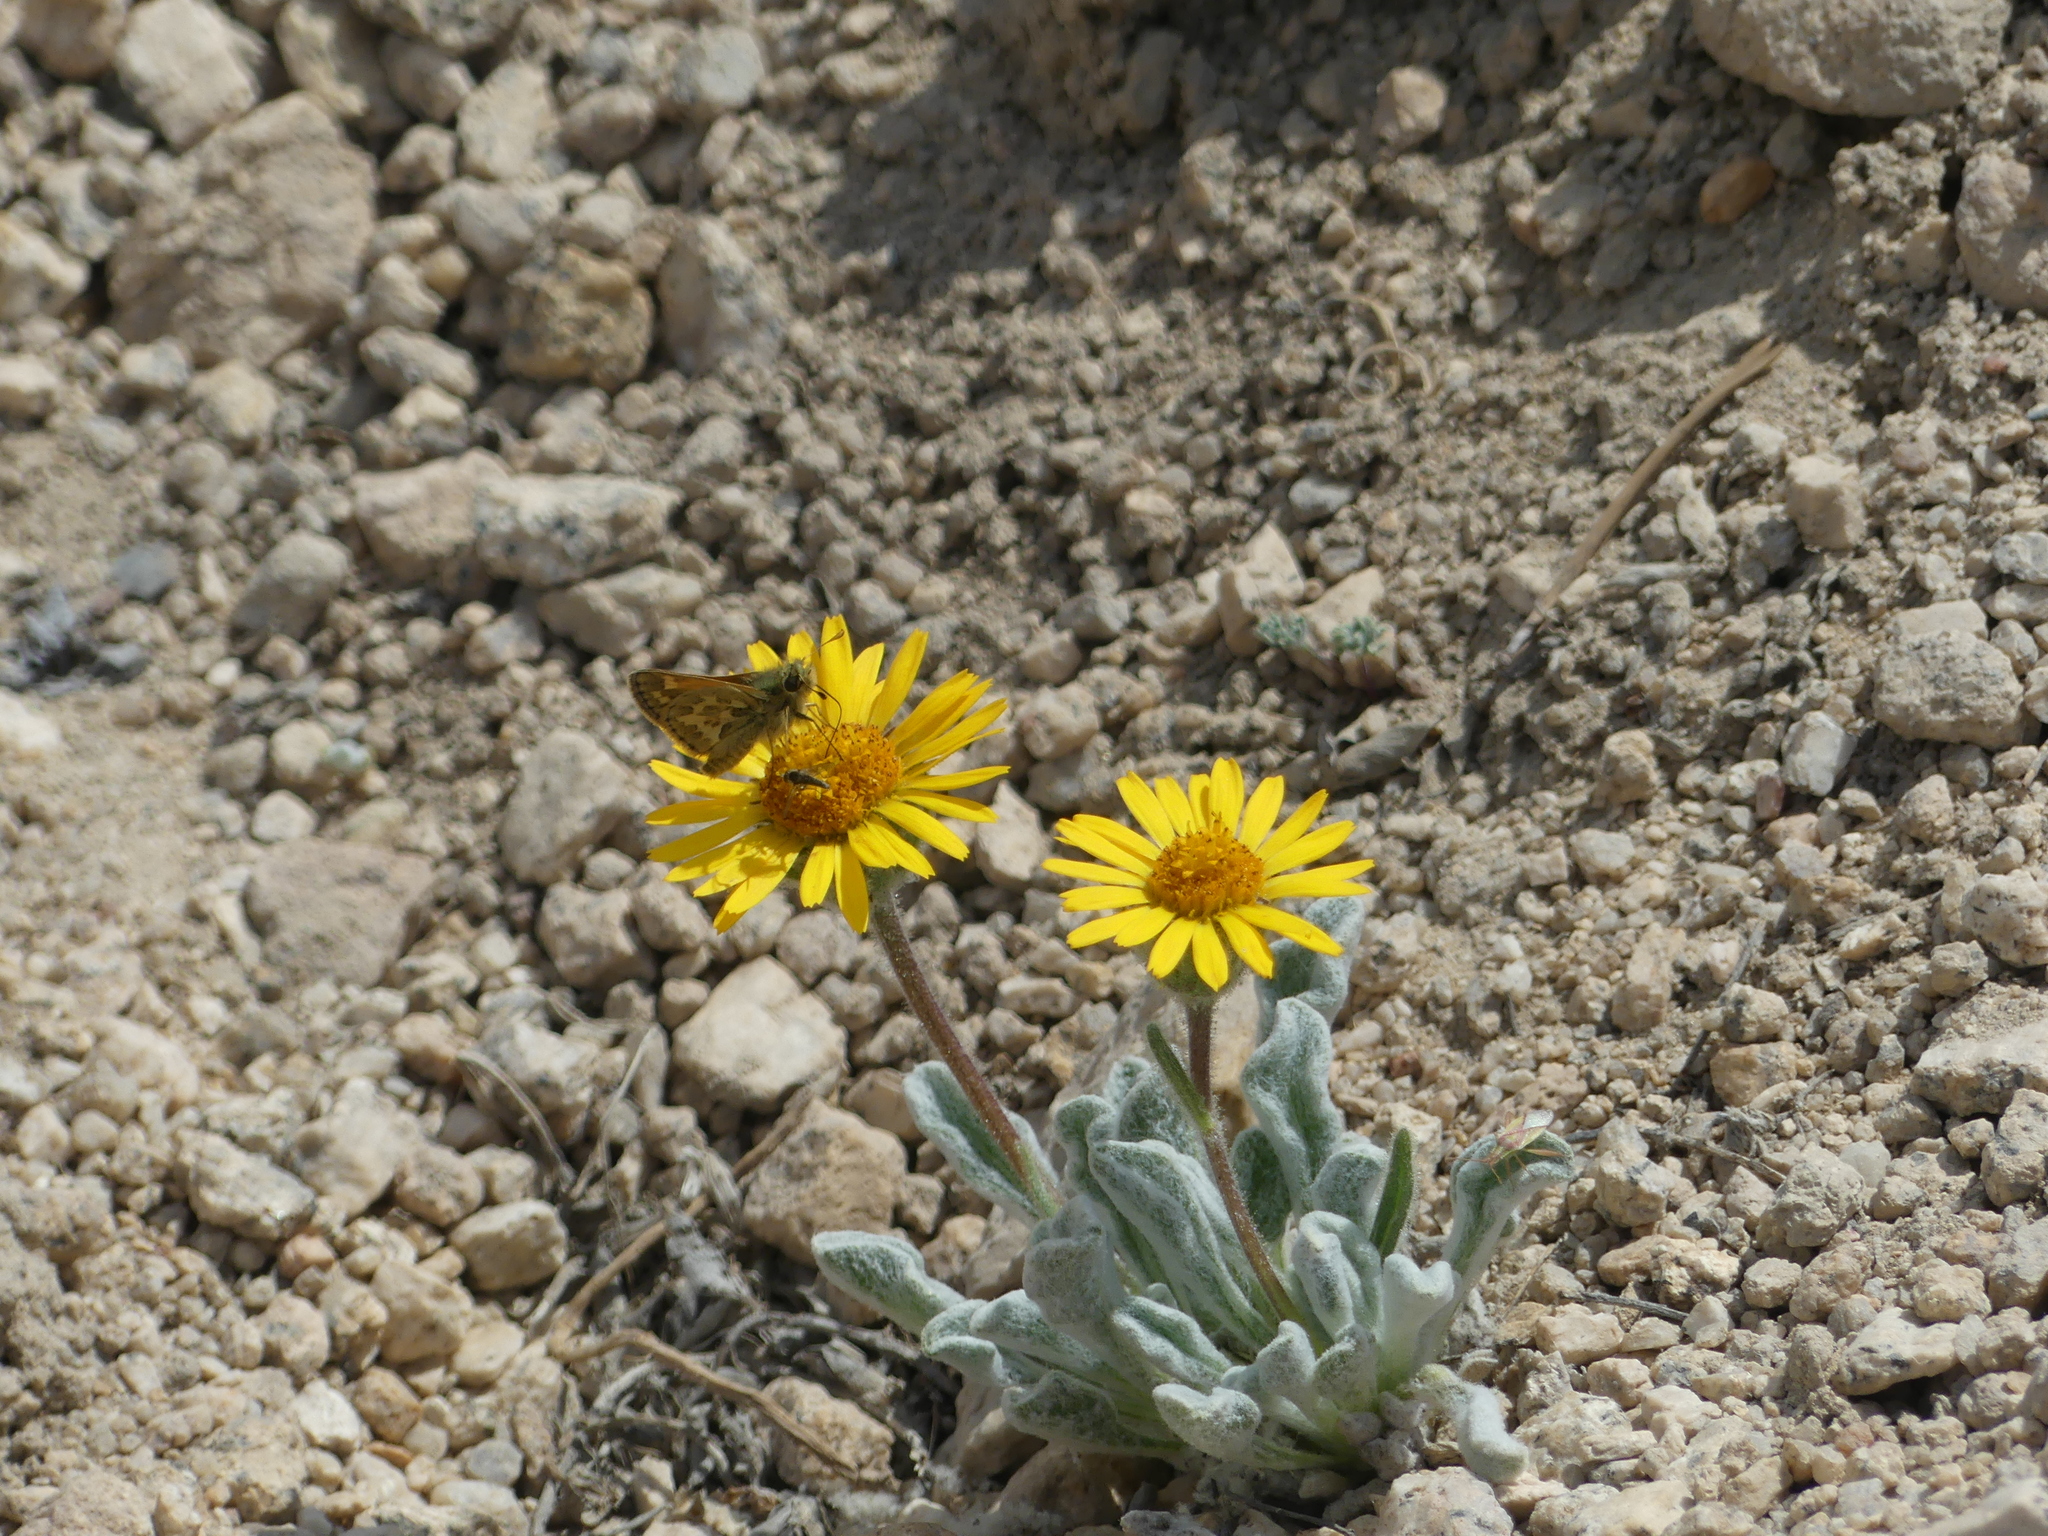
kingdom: Plantae
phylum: Tracheophyta
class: Magnoliopsida
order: Asterales
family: Asteraceae
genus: Hulsea
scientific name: Hulsea vestita
